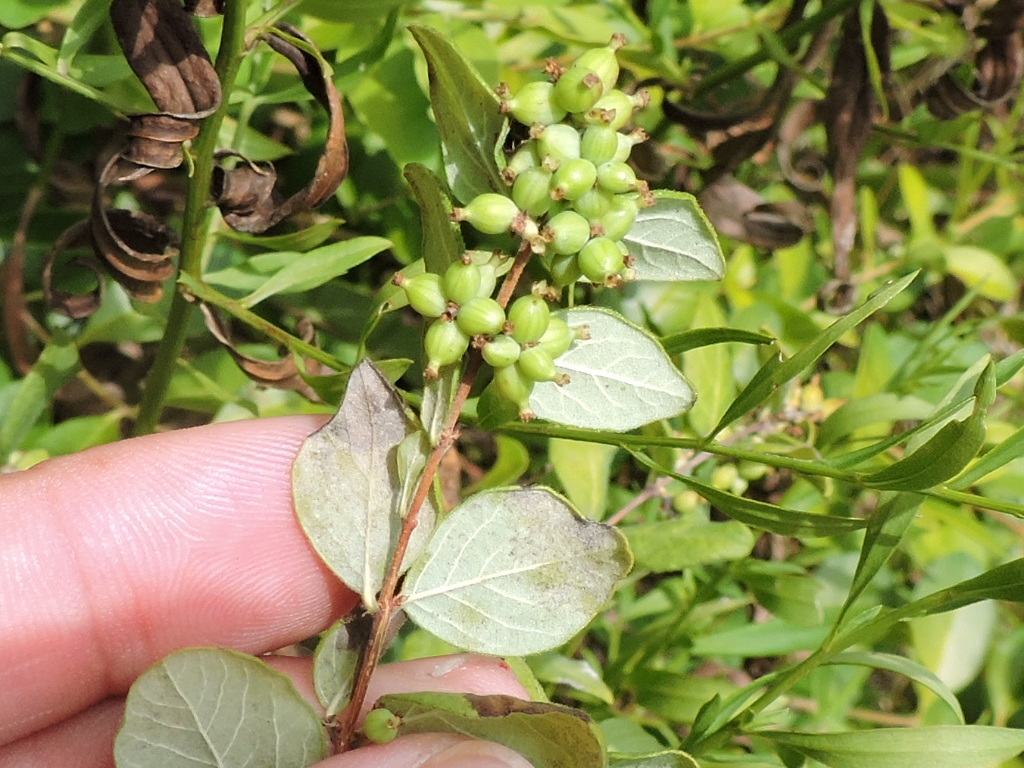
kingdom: Plantae
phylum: Tracheophyta
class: Magnoliopsida
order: Dipsacales
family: Caprifoliaceae
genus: Symphoricarpos
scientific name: Symphoricarpos orbiculatus
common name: Coralberry
